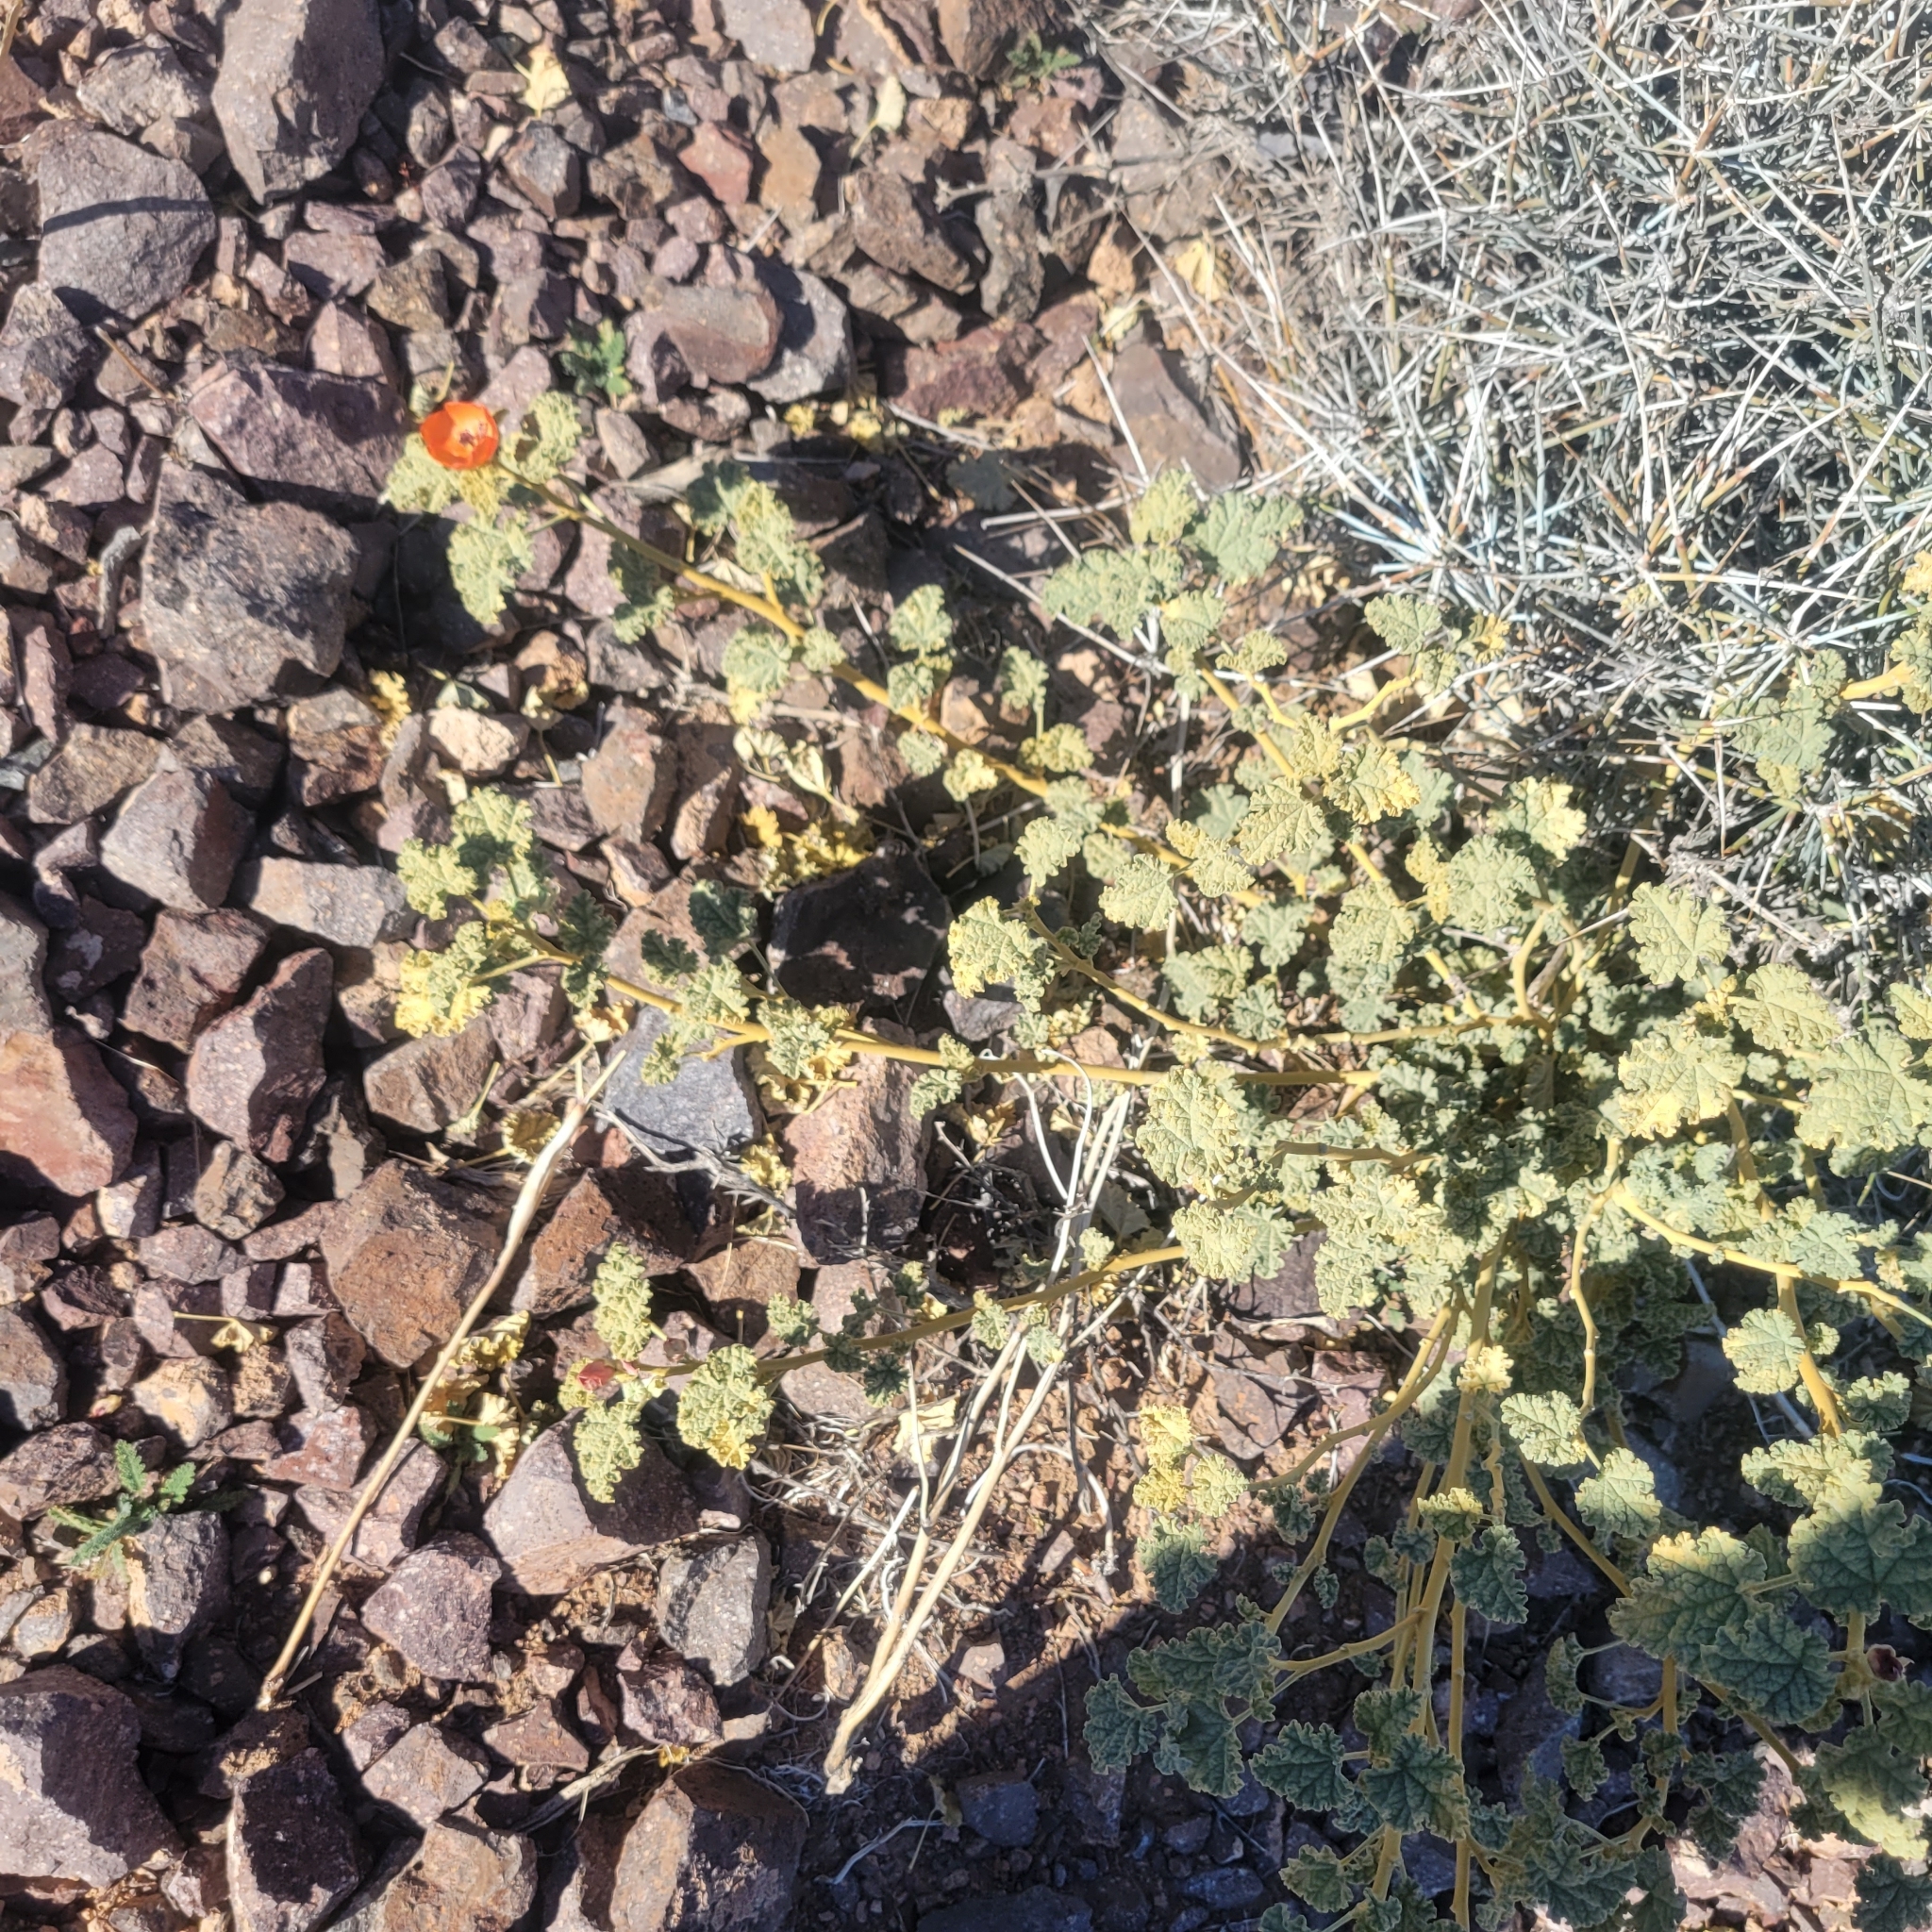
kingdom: Plantae
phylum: Tracheophyta
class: Magnoliopsida
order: Malvales
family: Malvaceae
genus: Sphaeralcea
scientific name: Sphaeralcea ambigua
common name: Apricot globe-mallow
